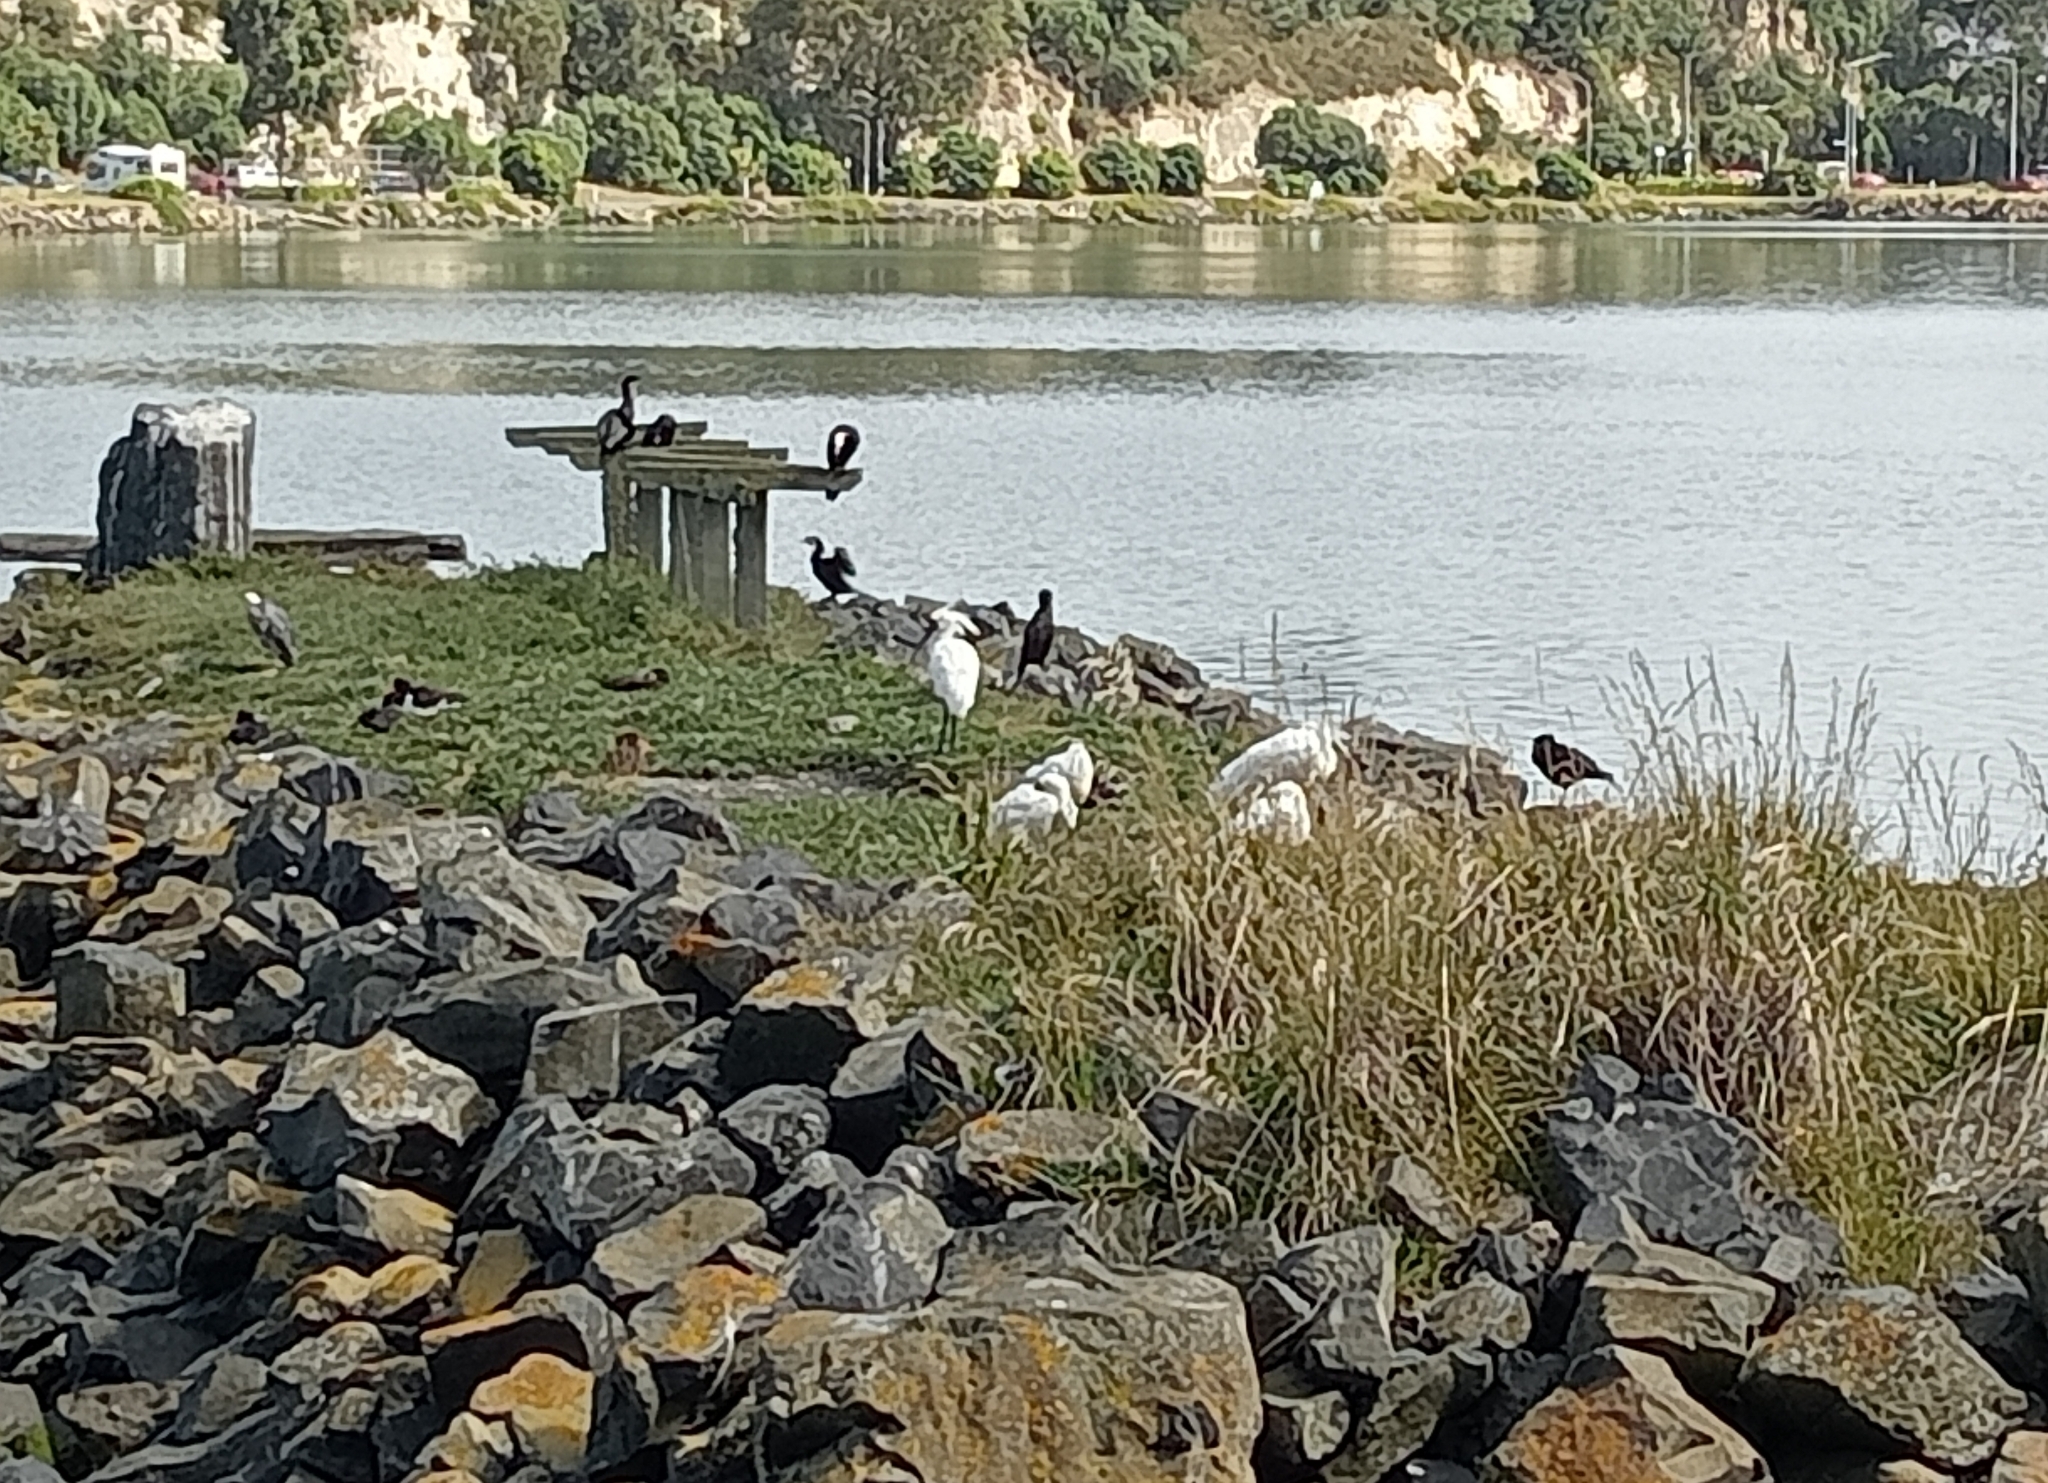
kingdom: Animalia
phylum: Chordata
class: Aves
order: Pelecaniformes
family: Threskiornithidae
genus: Platalea
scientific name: Platalea regia
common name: Royal spoonbill
